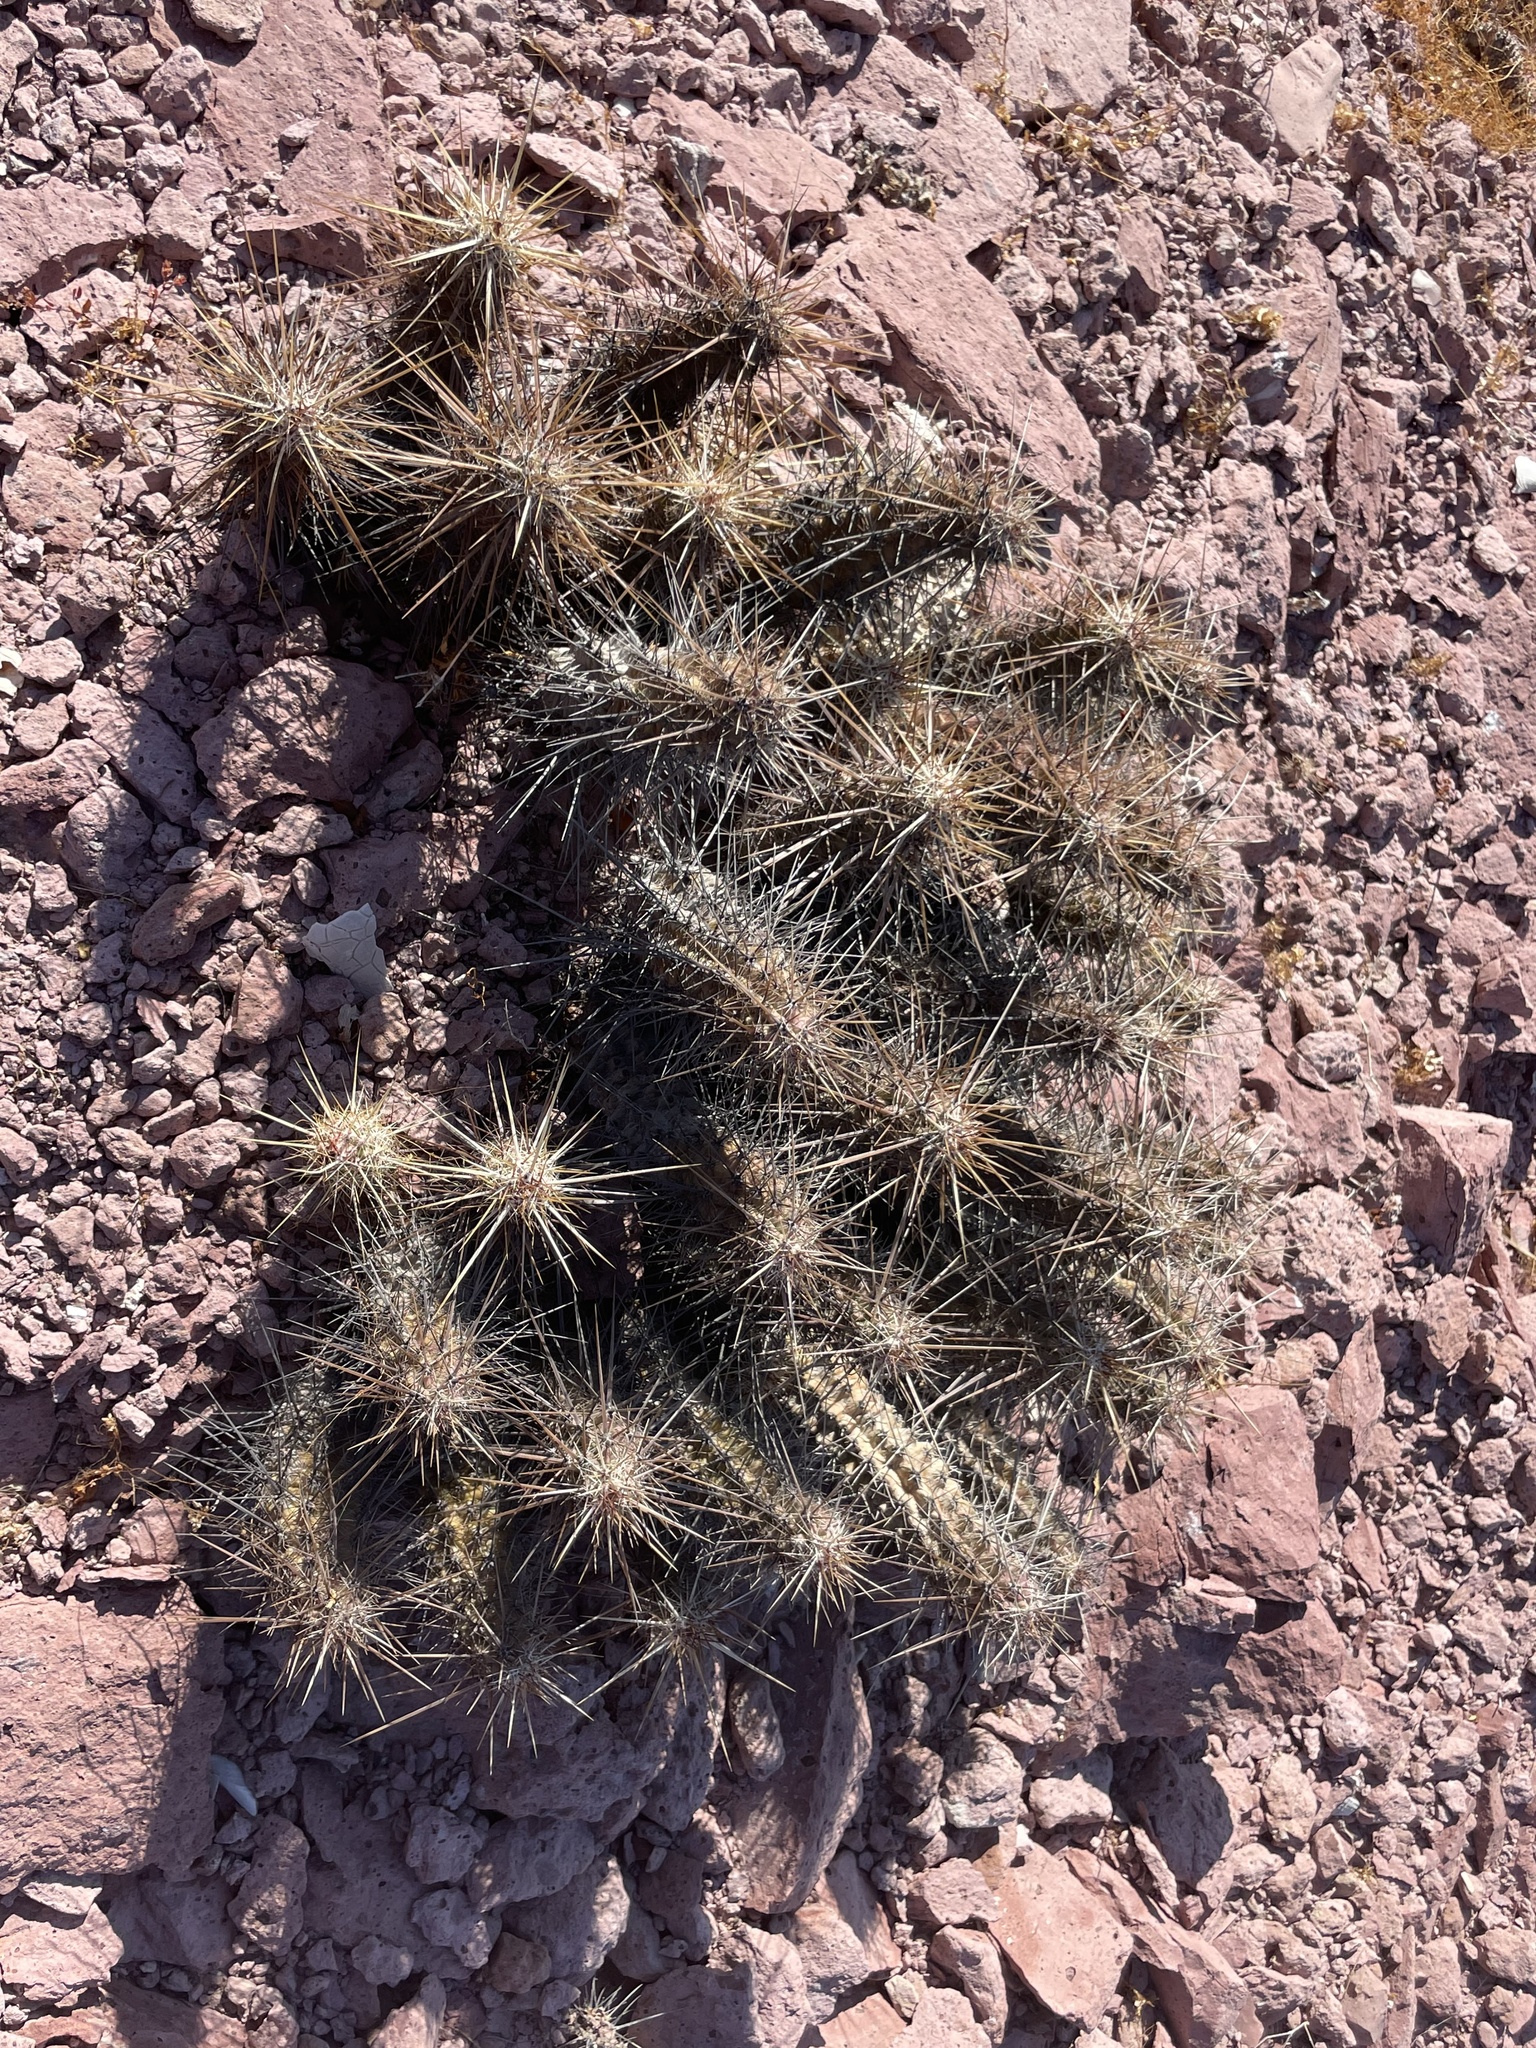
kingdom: Plantae
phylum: Tracheophyta
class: Magnoliopsida
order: Caryophyllales
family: Cactaceae
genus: Echinocereus
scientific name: Echinocereus brandegeei
